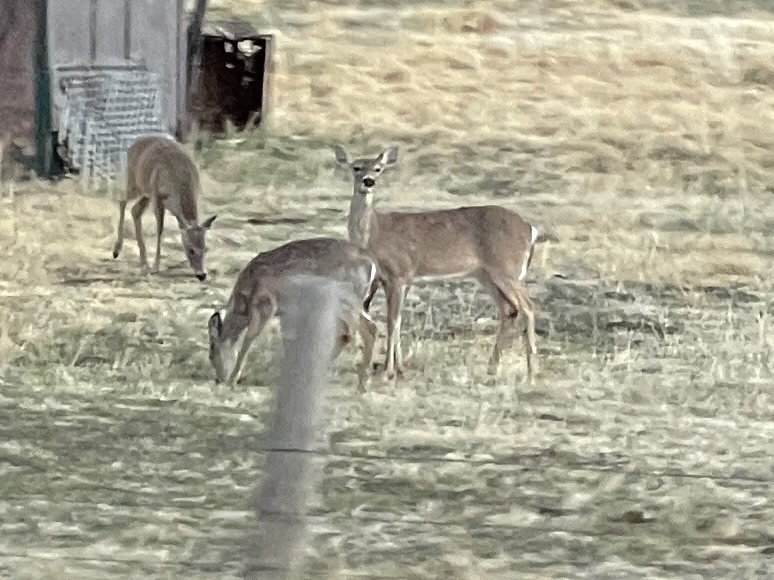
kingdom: Animalia
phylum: Chordata
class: Mammalia
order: Artiodactyla
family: Cervidae
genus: Odocoileus
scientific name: Odocoileus virginianus
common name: White-tailed deer
